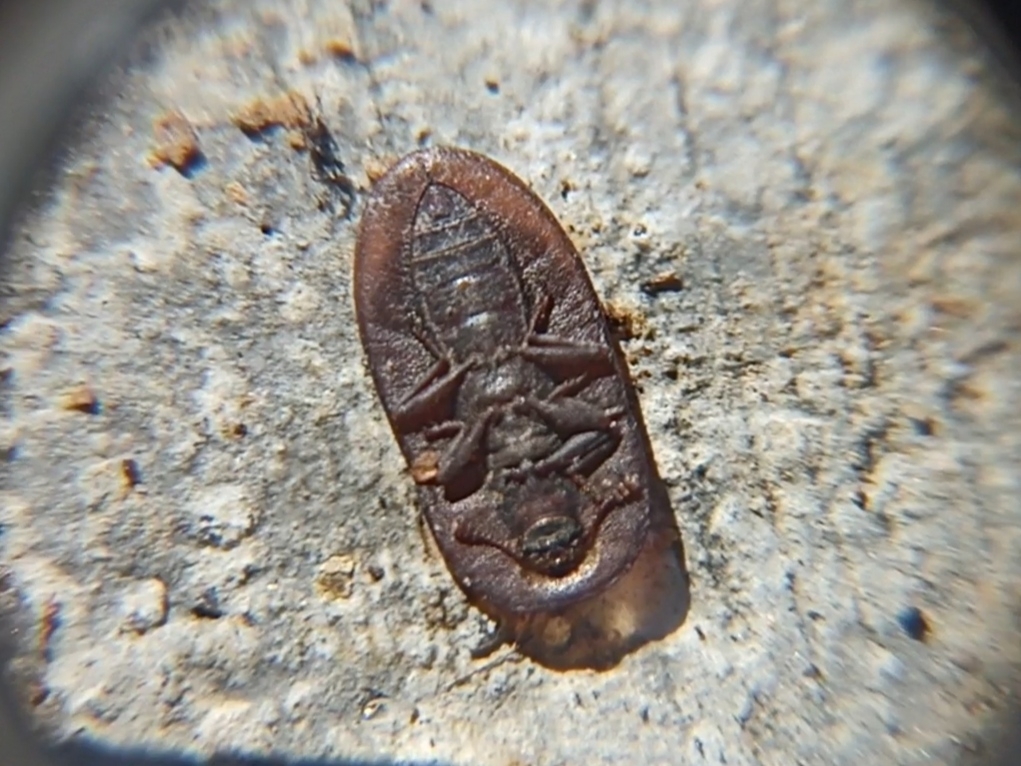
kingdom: Animalia
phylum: Arthropoda
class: Insecta
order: Coleoptera
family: Tenebrionidae
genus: Cossyphus
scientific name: Cossyphus hoffmannseggi
